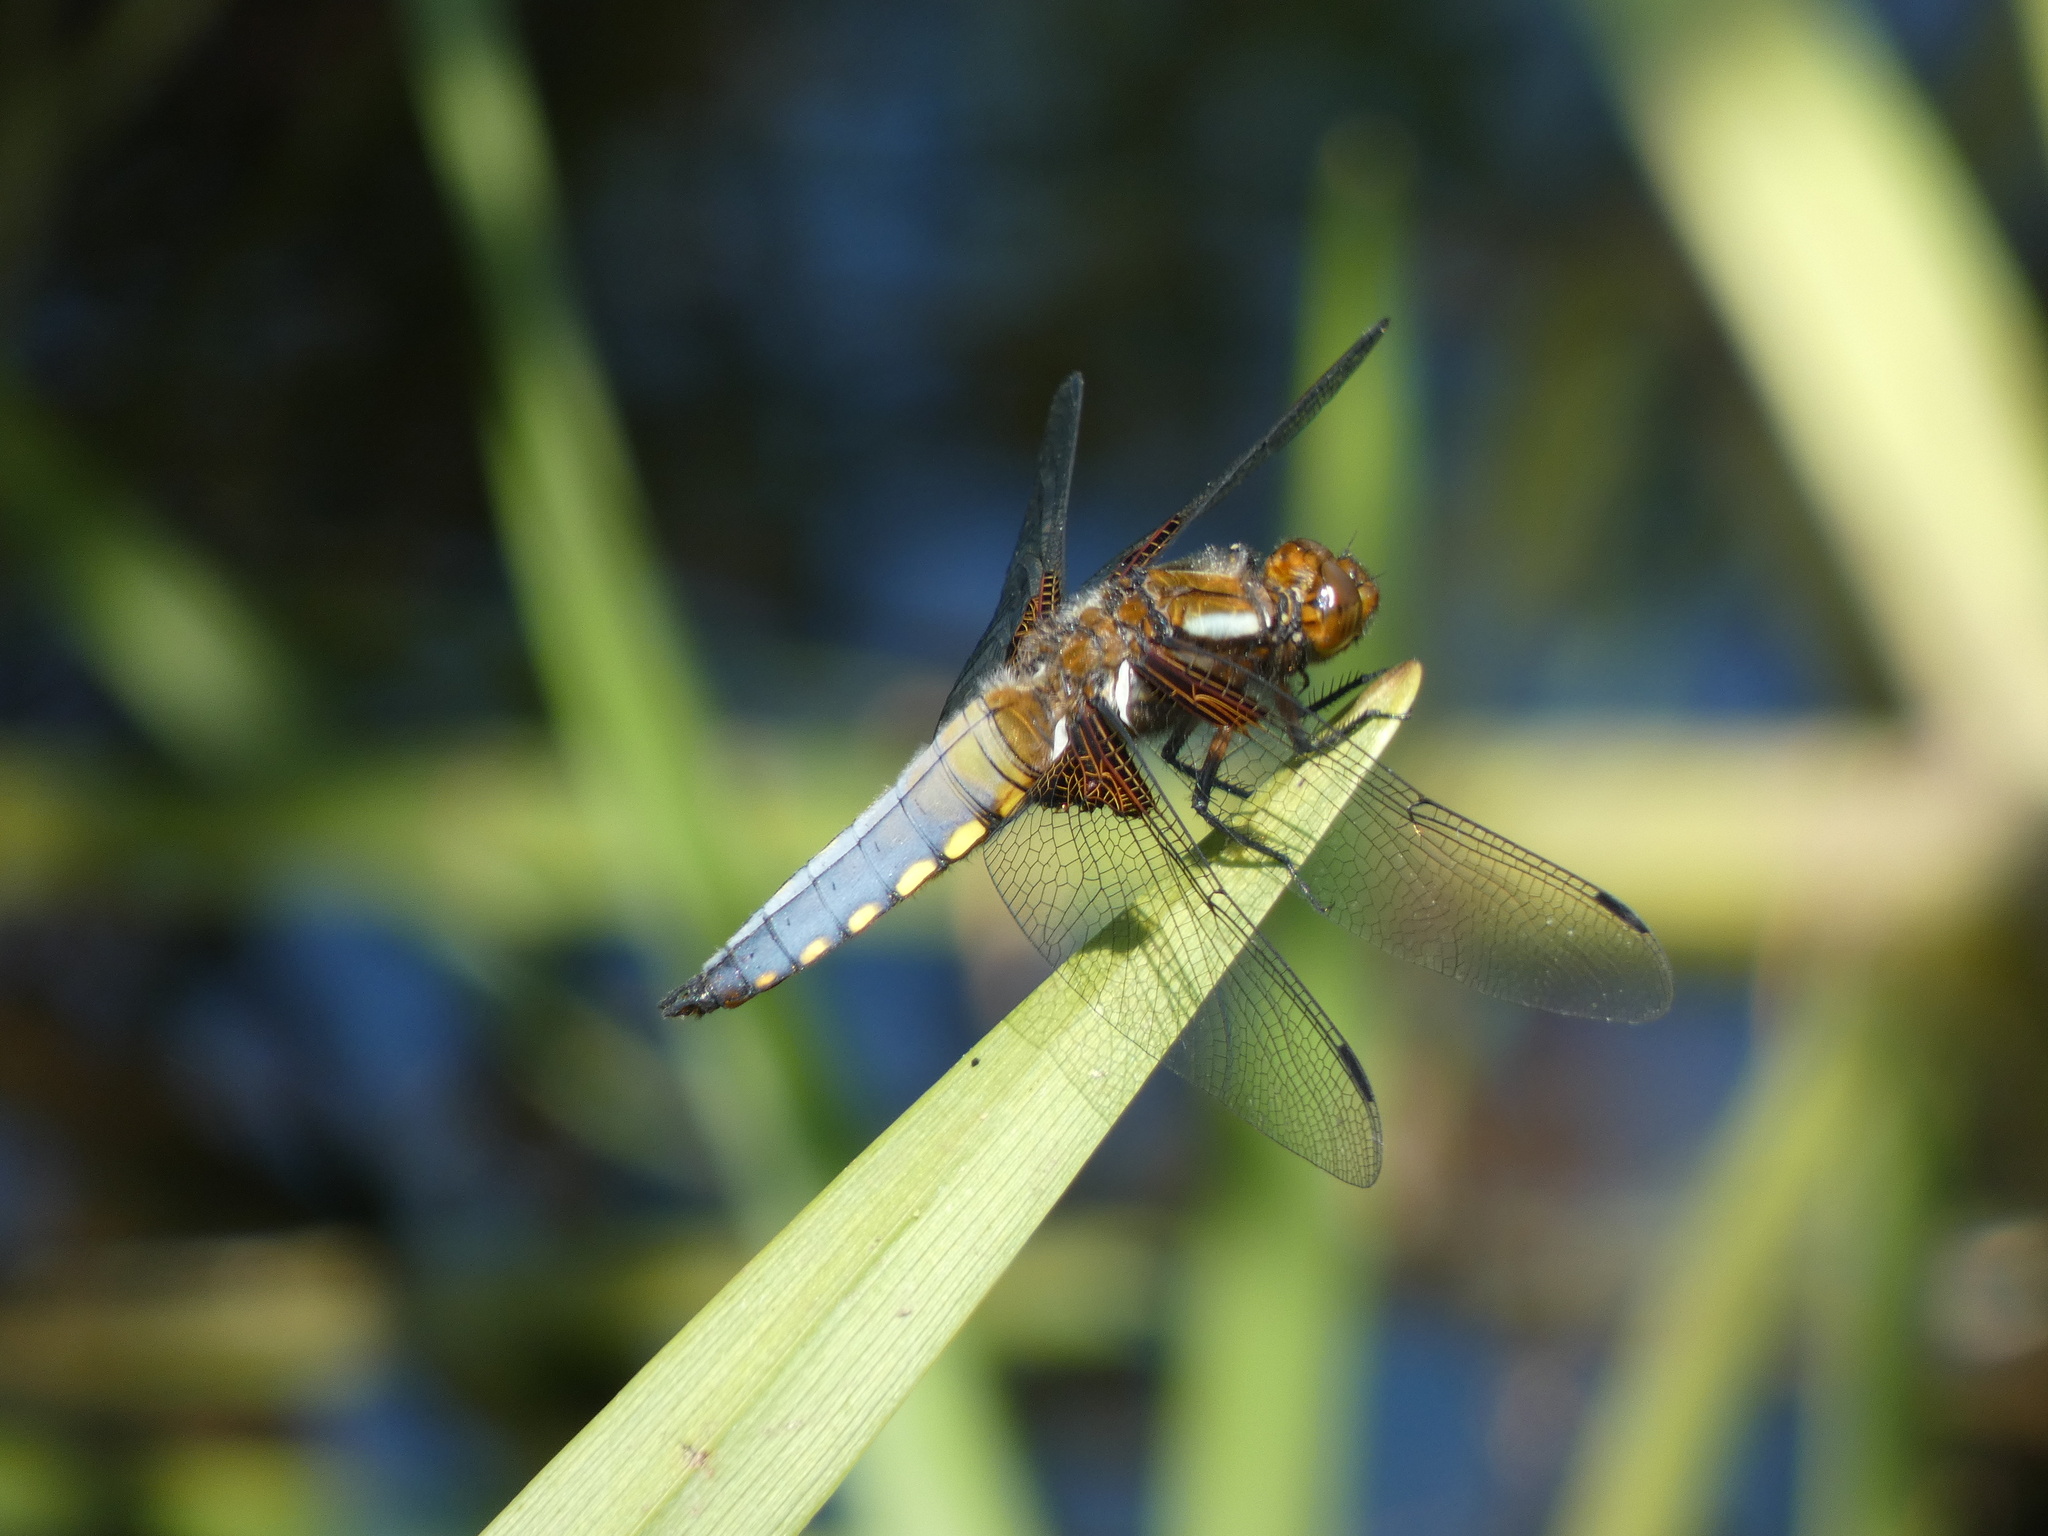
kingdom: Animalia
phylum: Arthropoda
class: Insecta
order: Odonata
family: Libellulidae
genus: Libellula
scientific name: Libellula depressa
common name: Broad-bodied chaser
